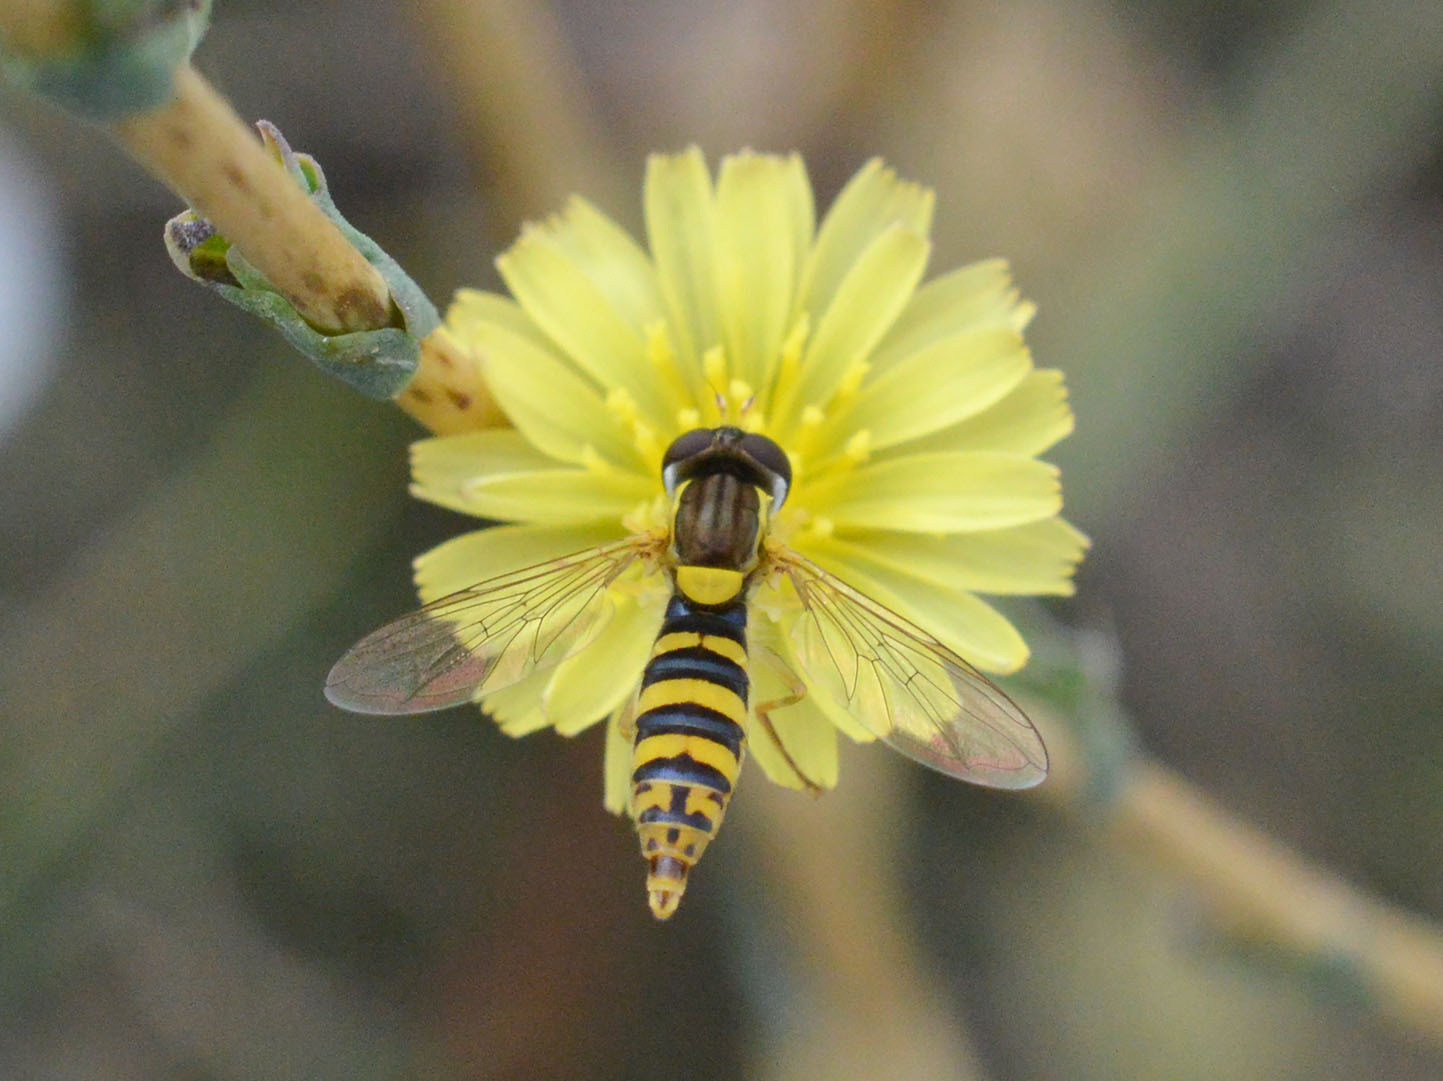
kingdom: Animalia
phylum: Arthropoda
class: Insecta
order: Diptera
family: Syrphidae
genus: Sphaerophoria
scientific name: Sphaerophoria
